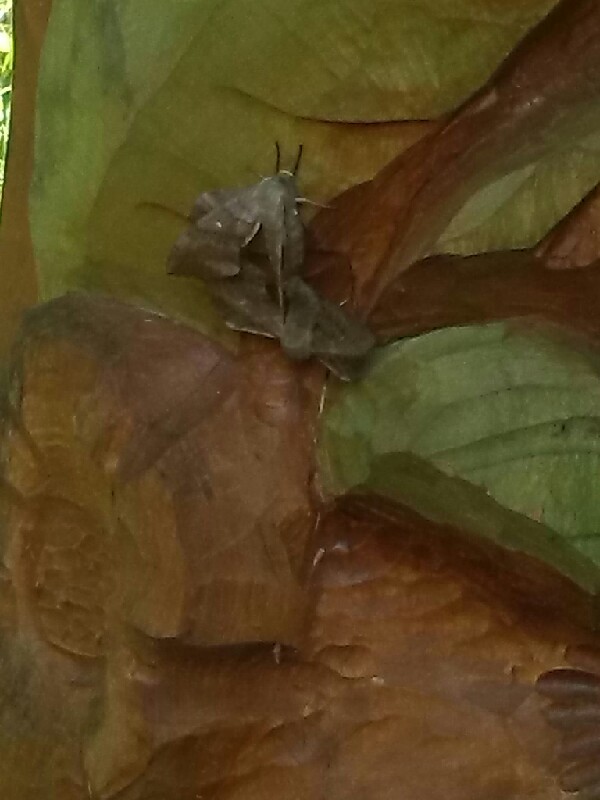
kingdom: Animalia
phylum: Arthropoda
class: Insecta
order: Lepidoptera
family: Sphingidae
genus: Laothoe
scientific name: Laothoe populi
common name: Poplar hawk-moth
